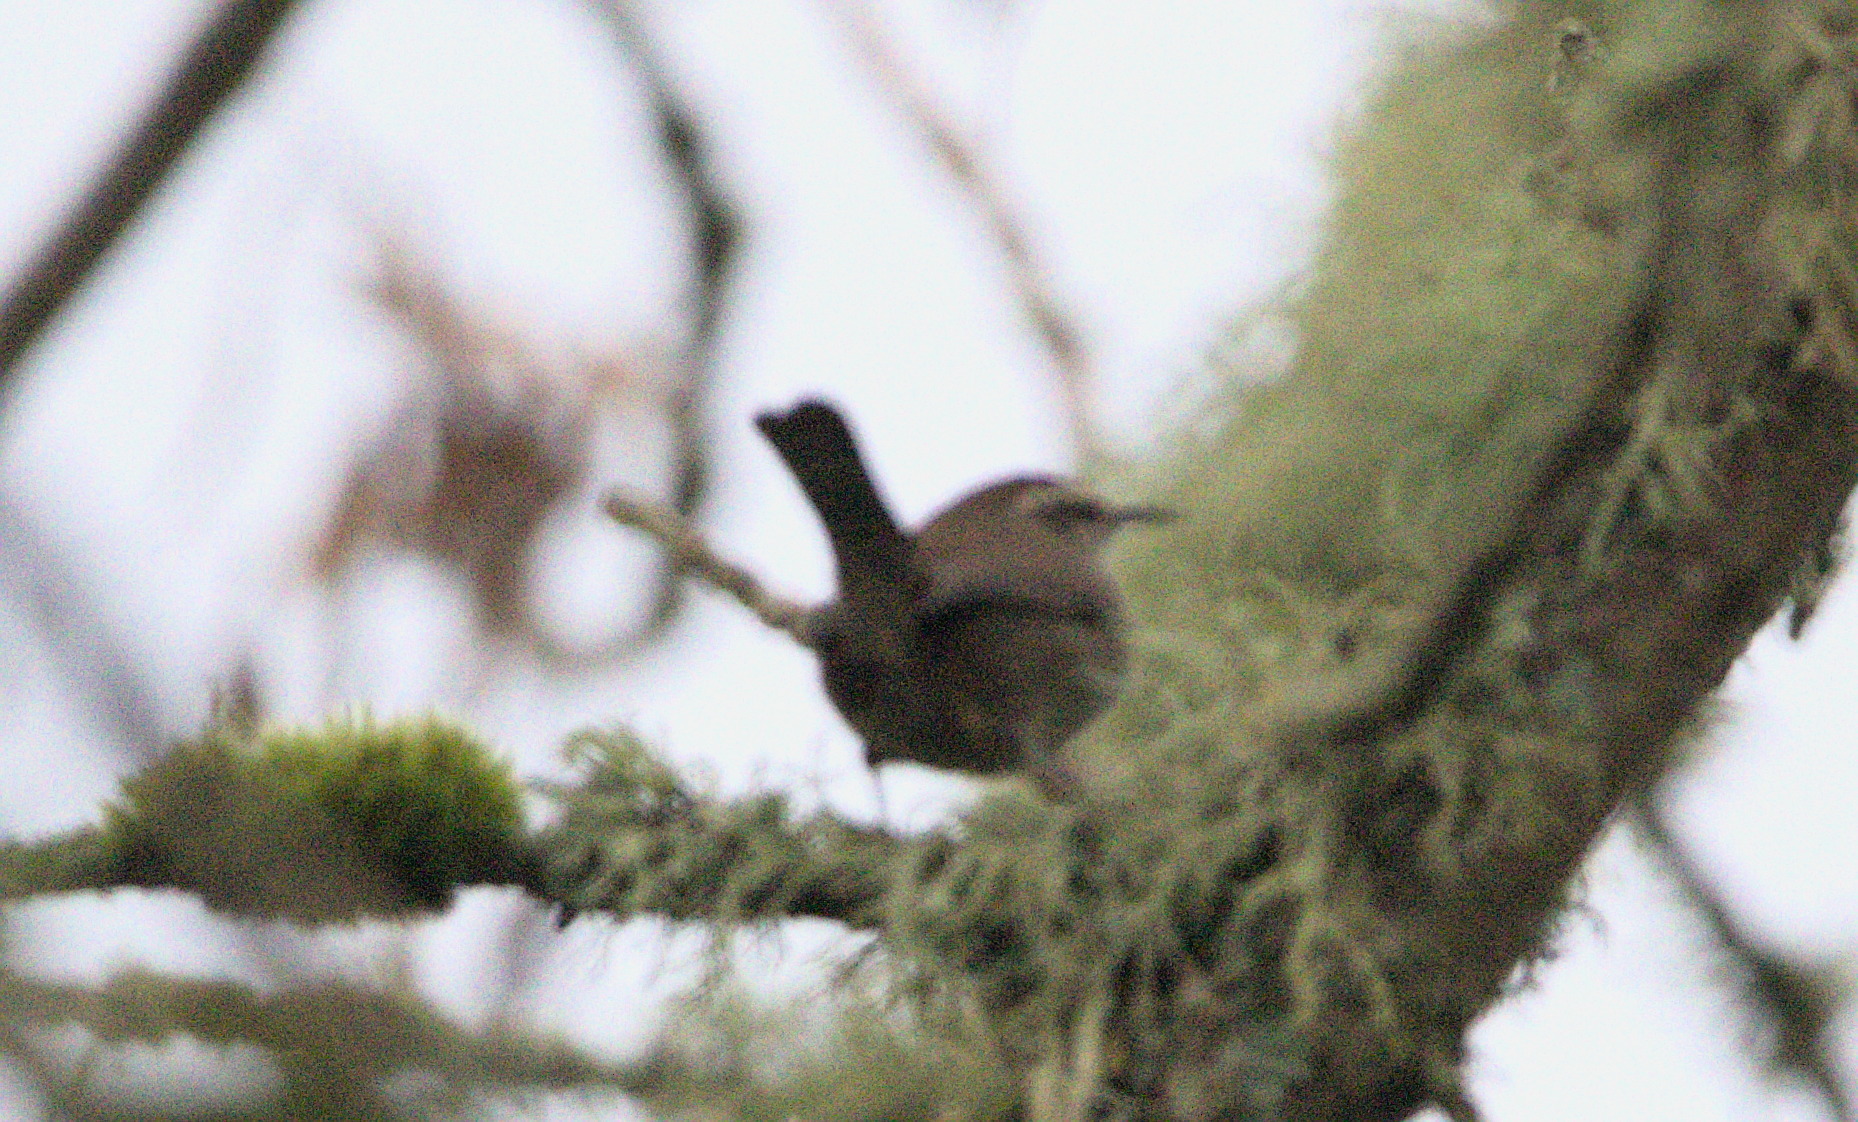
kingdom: Animalia
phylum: Chordata
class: Aves
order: Passeriformes
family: Troglodytidae
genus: Thryomanes
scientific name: Thryomanes bewickii
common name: Bewick's wren
